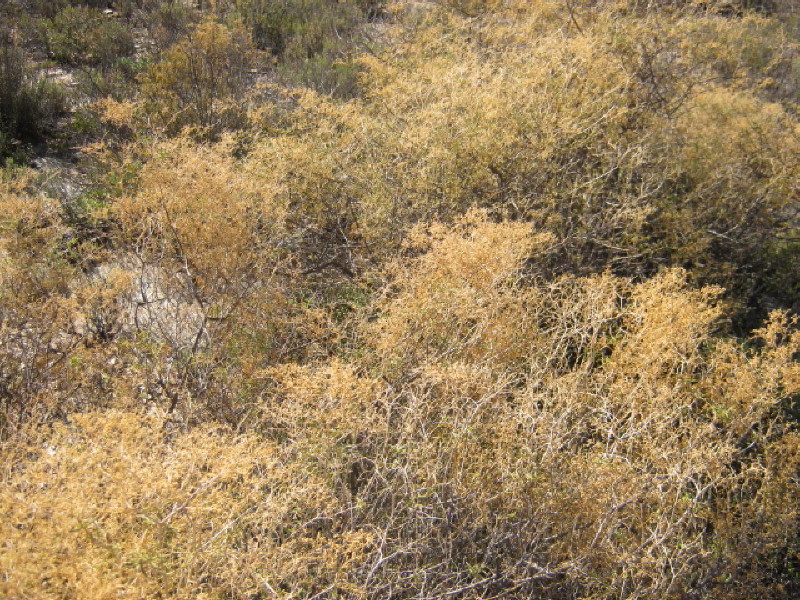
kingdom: Plantae
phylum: Tracheophyta
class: Magnoliopsida
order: Caryophyllales
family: Aizoaceae
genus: Aizoon
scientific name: Aizoon africanum
